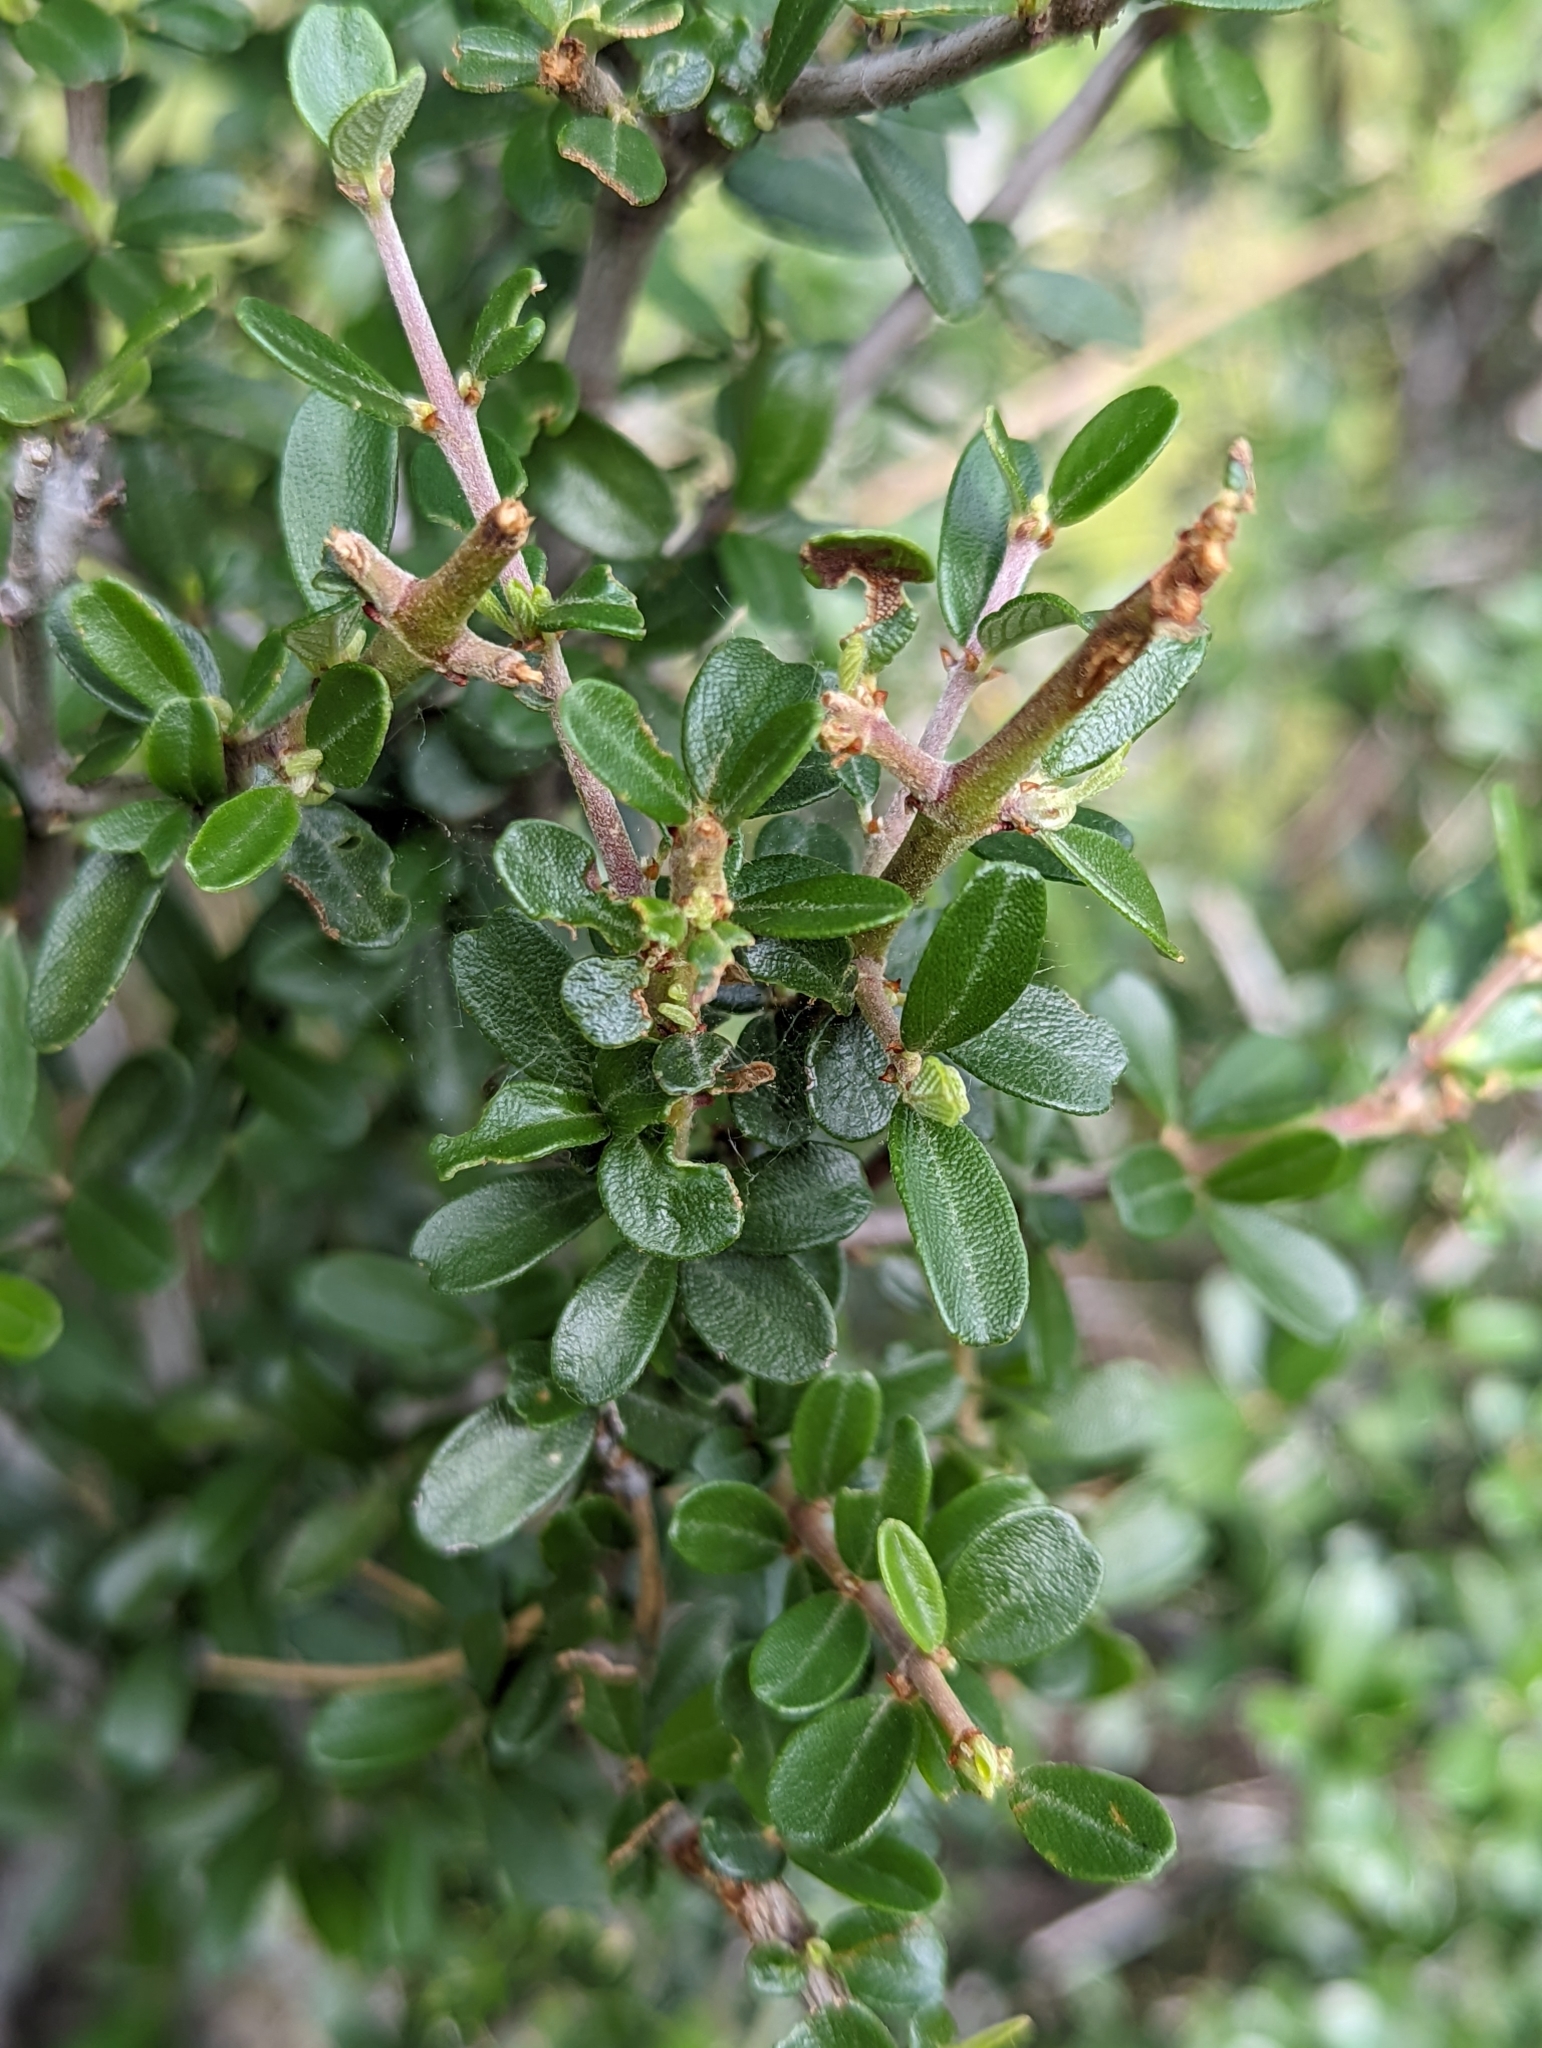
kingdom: Plantae
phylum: Tracheophyta
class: Magnoliopsida
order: Rosales
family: Rhamnaceae
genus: Ceanothus
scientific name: Ceanothus cuneatus
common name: Cuneate ceanothus
